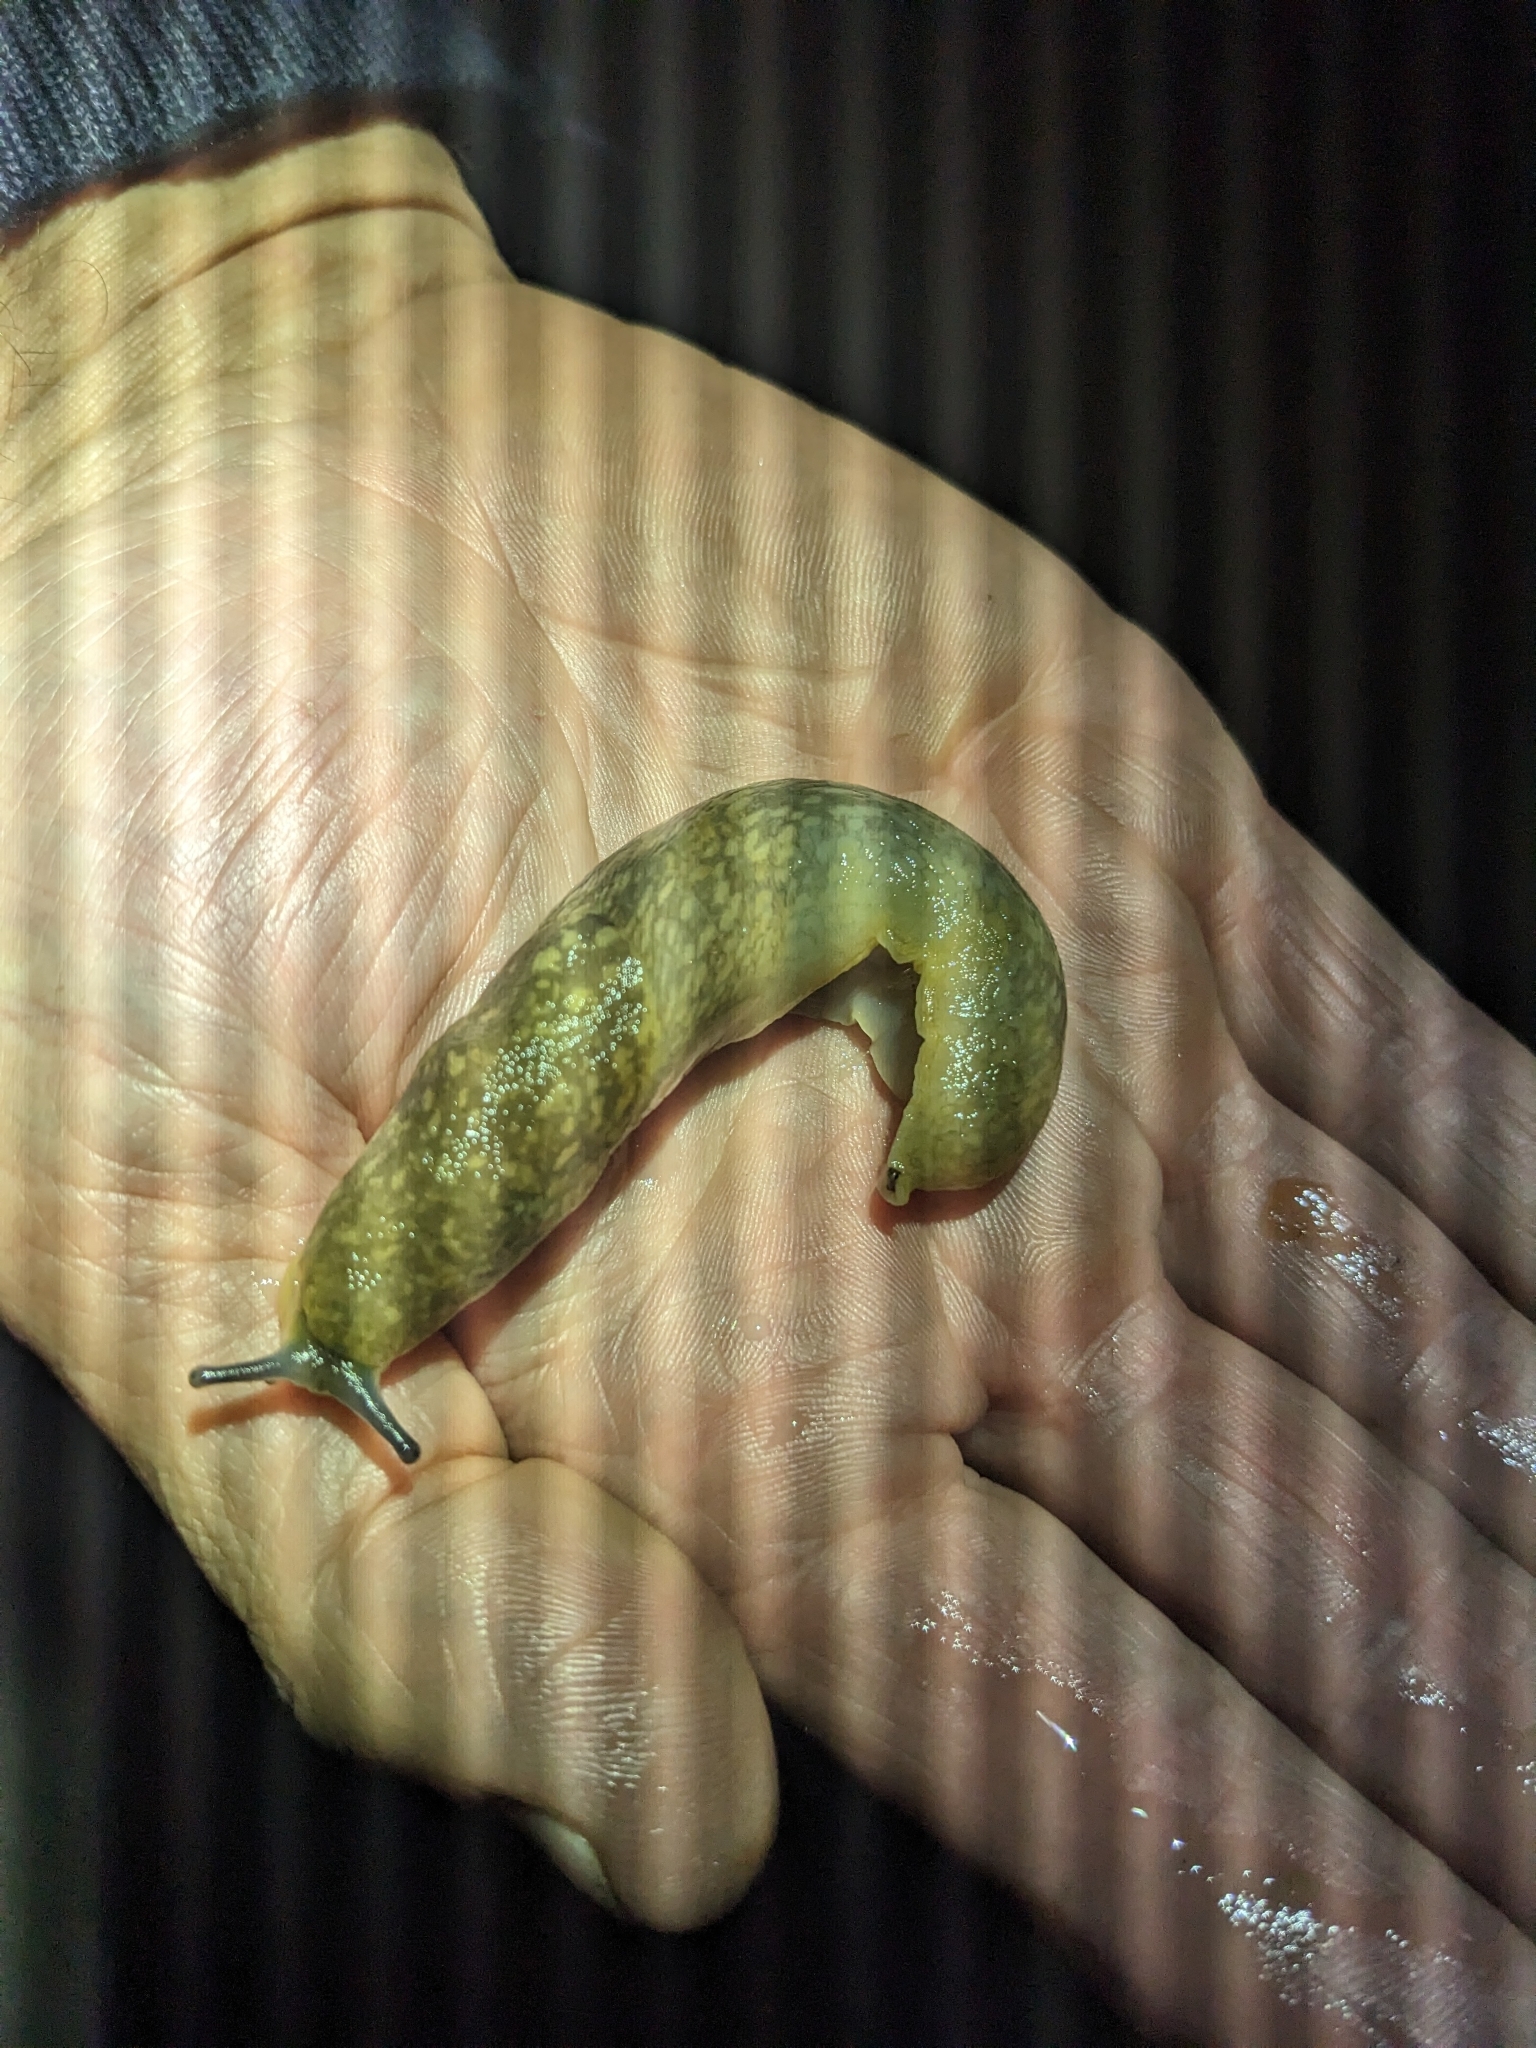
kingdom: Animalia
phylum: Mollusca
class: Gastropoda
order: Stylommatophora
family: Limacidae
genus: Limacus
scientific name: Limacus flavus
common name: Yellow gardenslug
